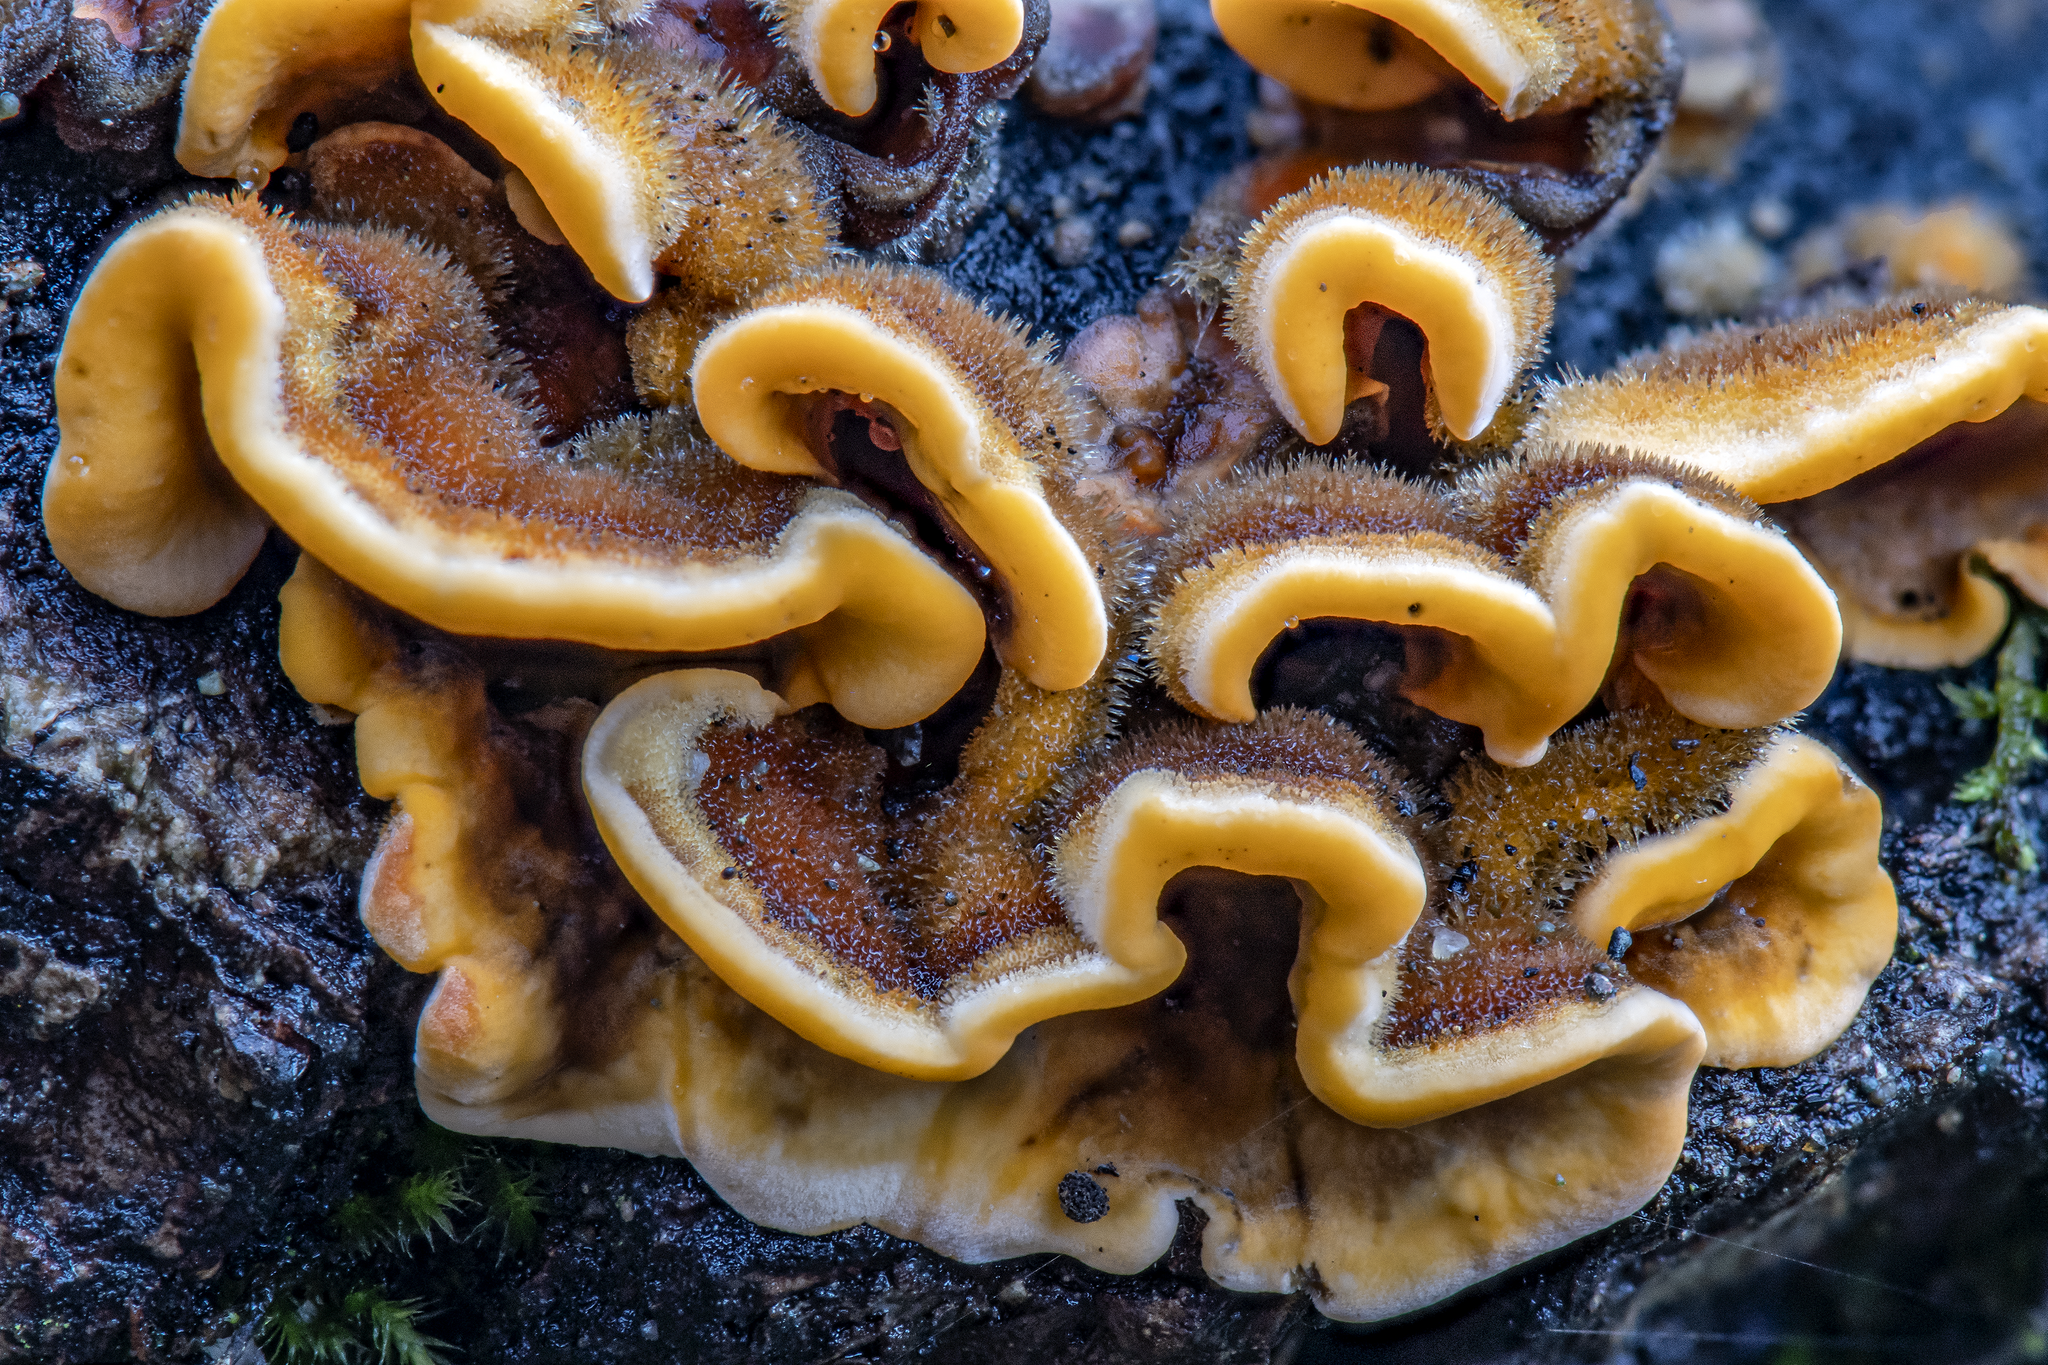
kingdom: Fungi
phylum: Basidiomycota
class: Agaricomycetes
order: Russulales
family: Stereaceae
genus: Stereum
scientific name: Stereum hirsutum
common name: Hairy curtain crust
